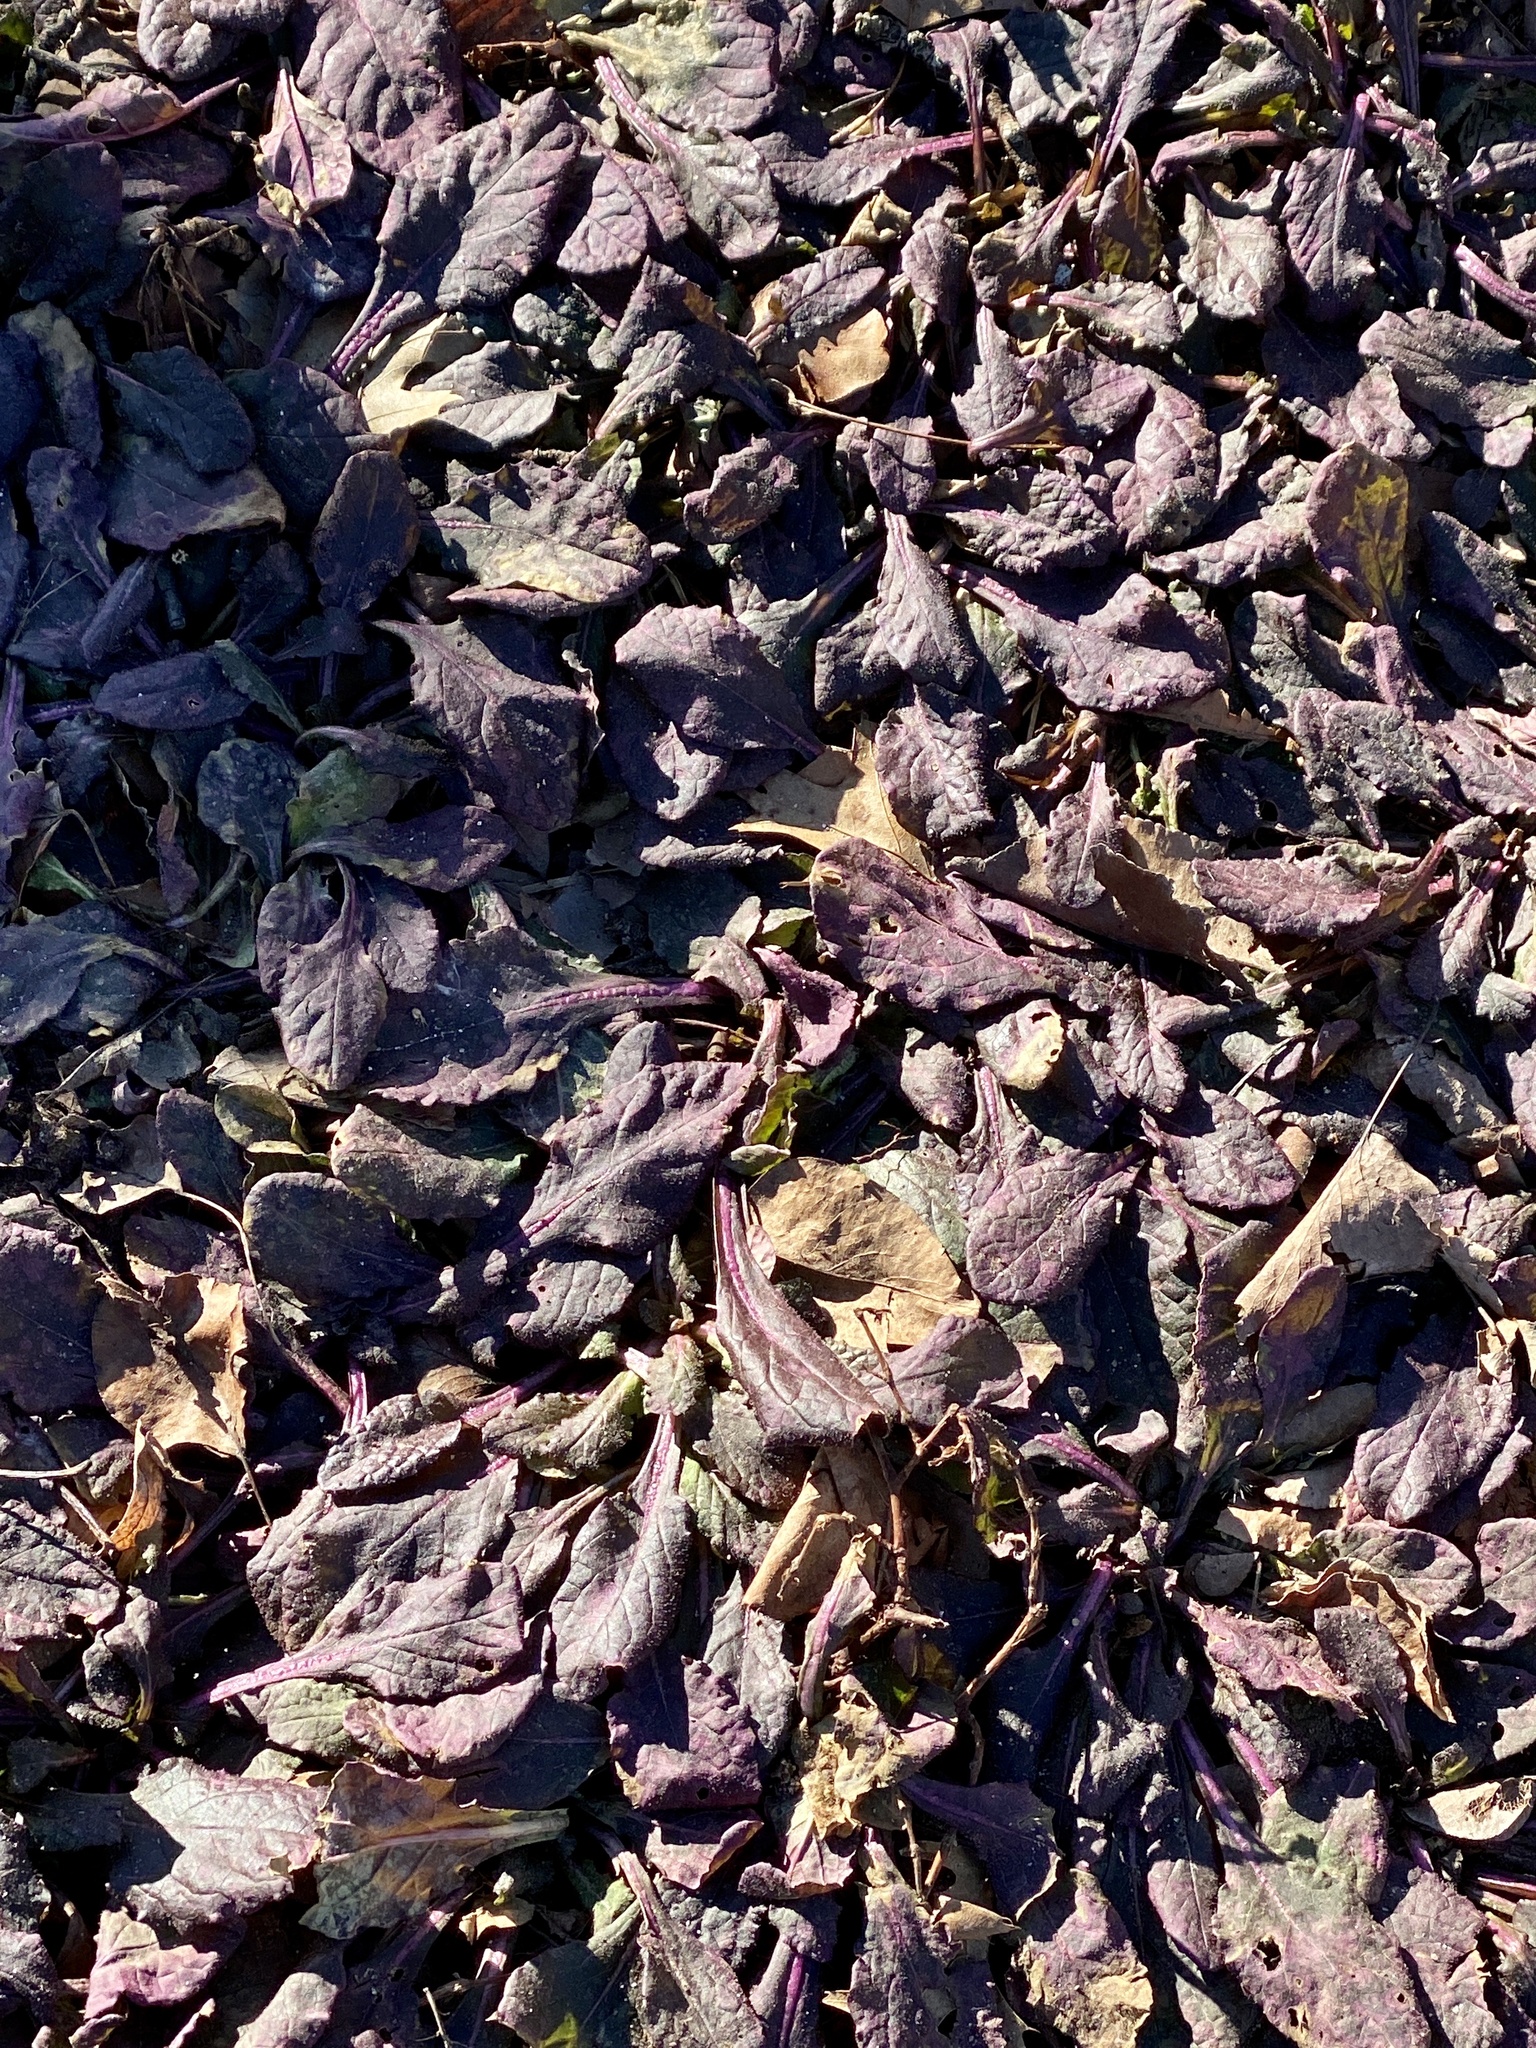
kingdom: Plantae
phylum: Tracheophyta
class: Magnoliopsida
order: Lamiales
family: Lamiaceae
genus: Ajuga
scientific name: Ajuga reptans
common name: Bugle
